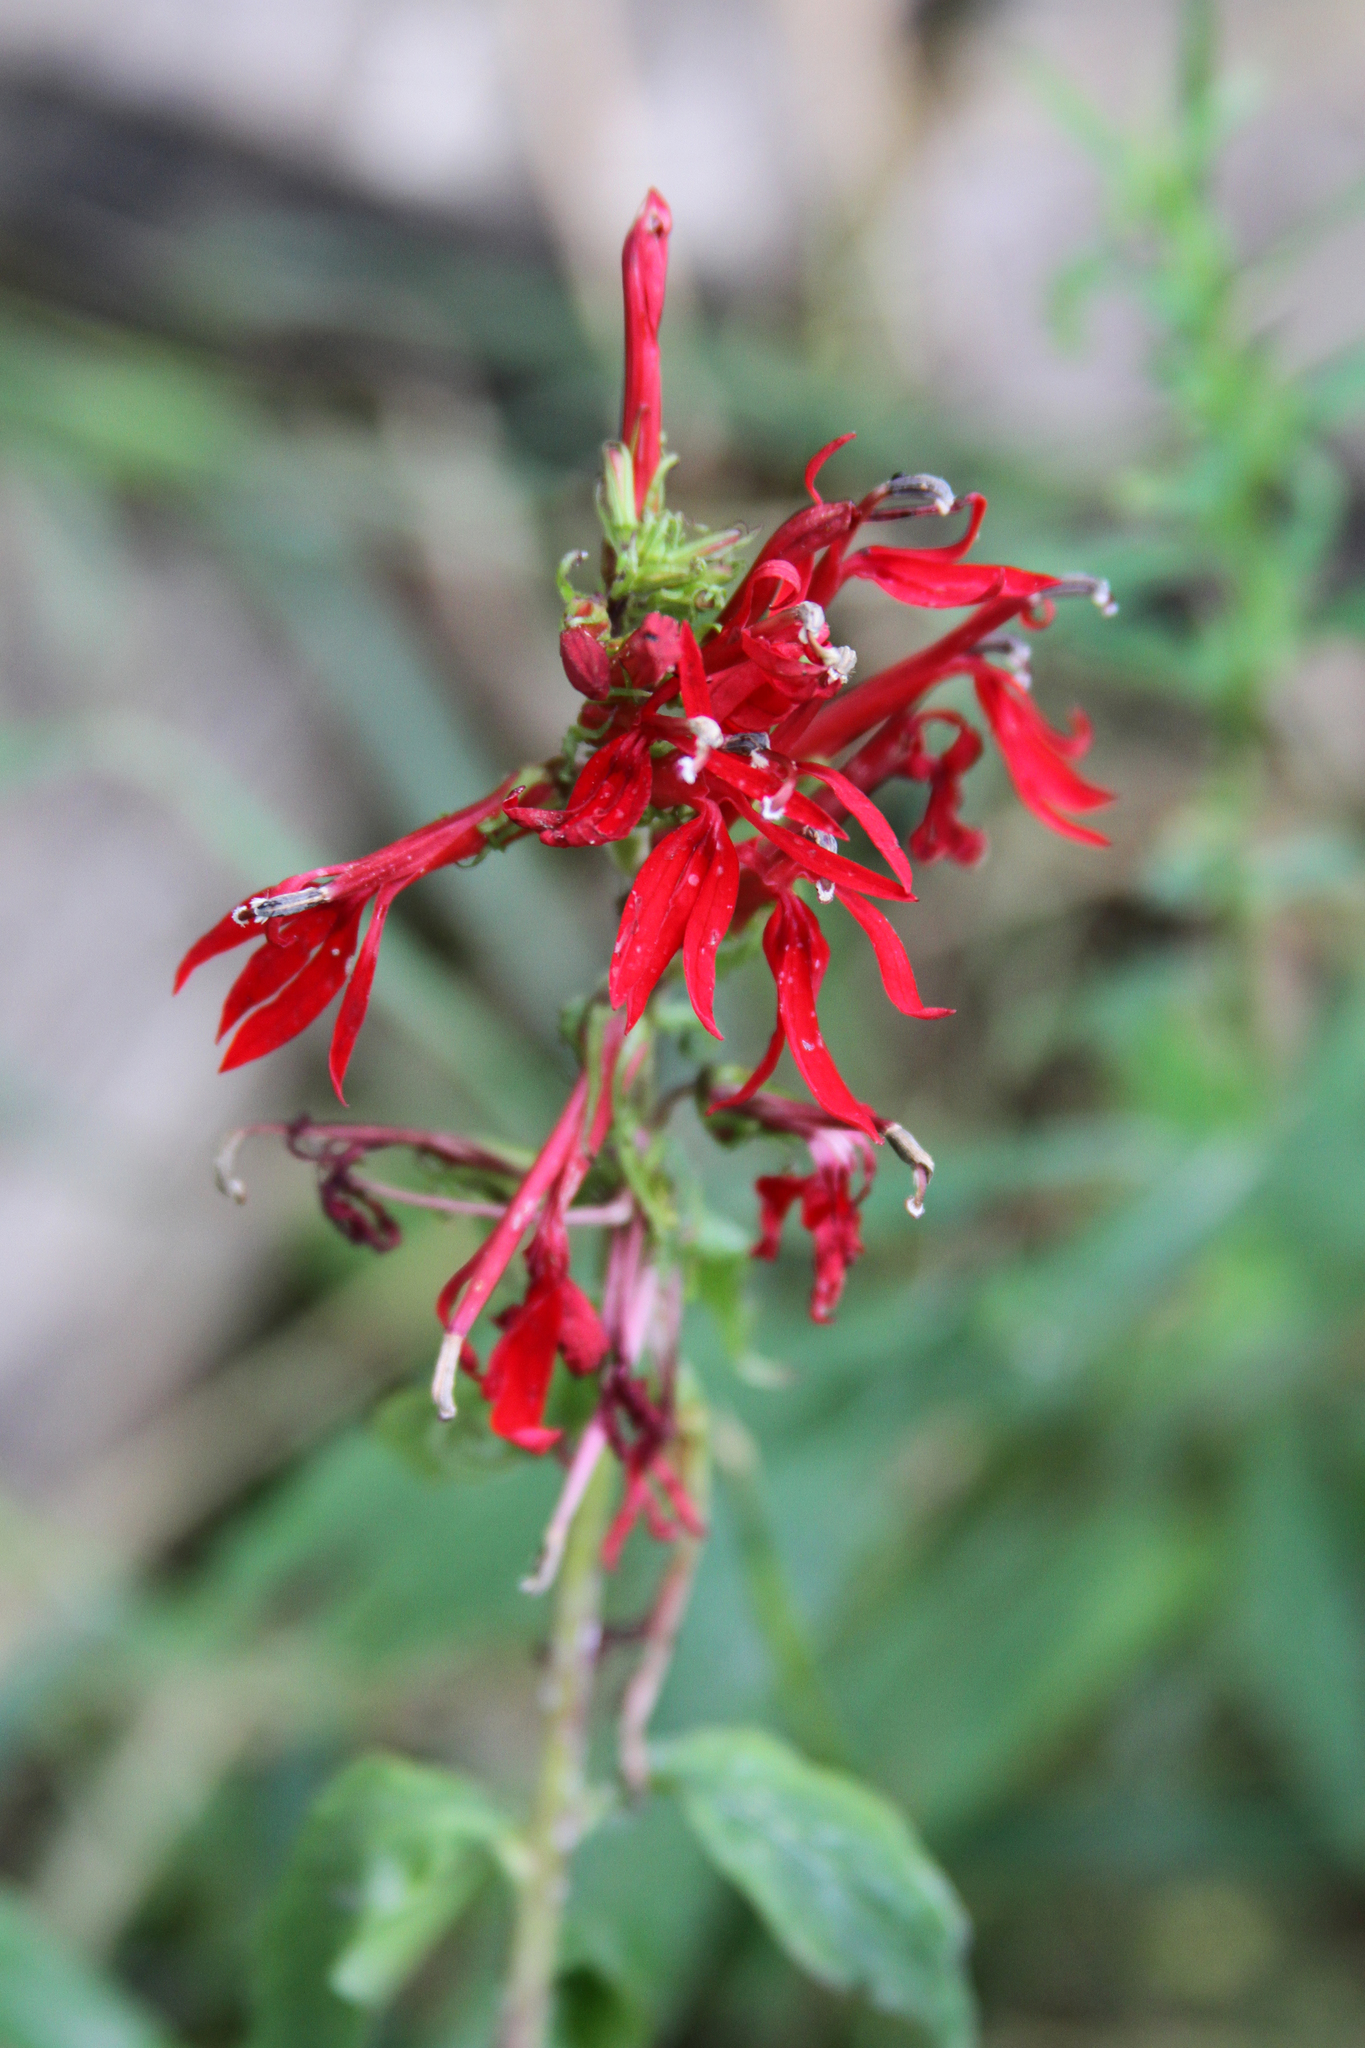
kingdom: Plantae
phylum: Tracheophyta
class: Magnoliopsida
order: Asterales
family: Campanulaceae
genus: Lobelia
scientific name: Lobelia cardinalis
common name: Cardinal flower
